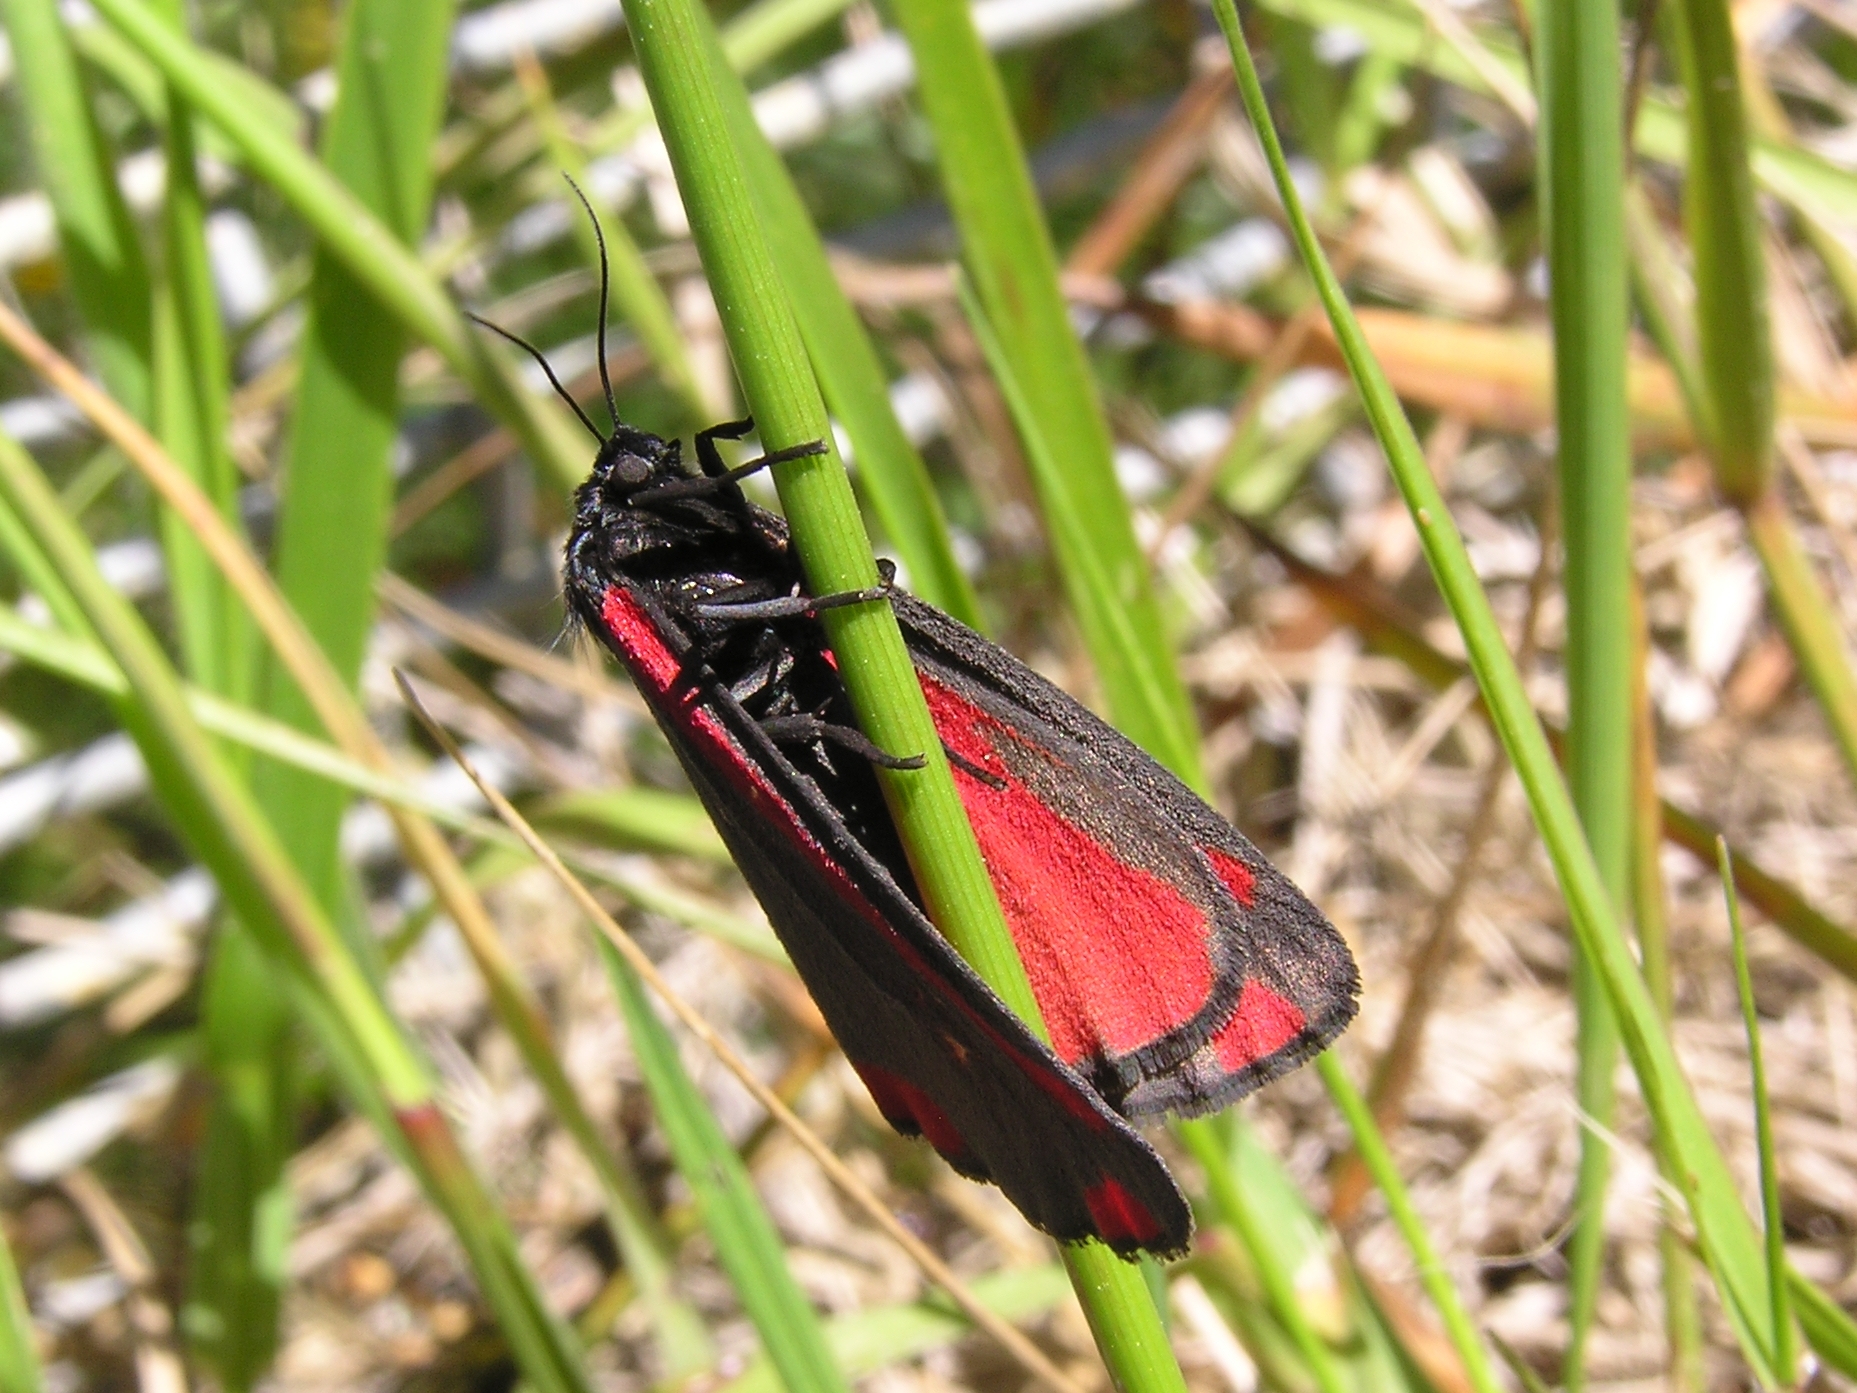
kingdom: Animalia
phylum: Arthropoda
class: Insecta
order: Lepidoptera
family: Erebidae
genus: Tyria
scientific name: Tyria jacobaeae
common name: Cinnabar
